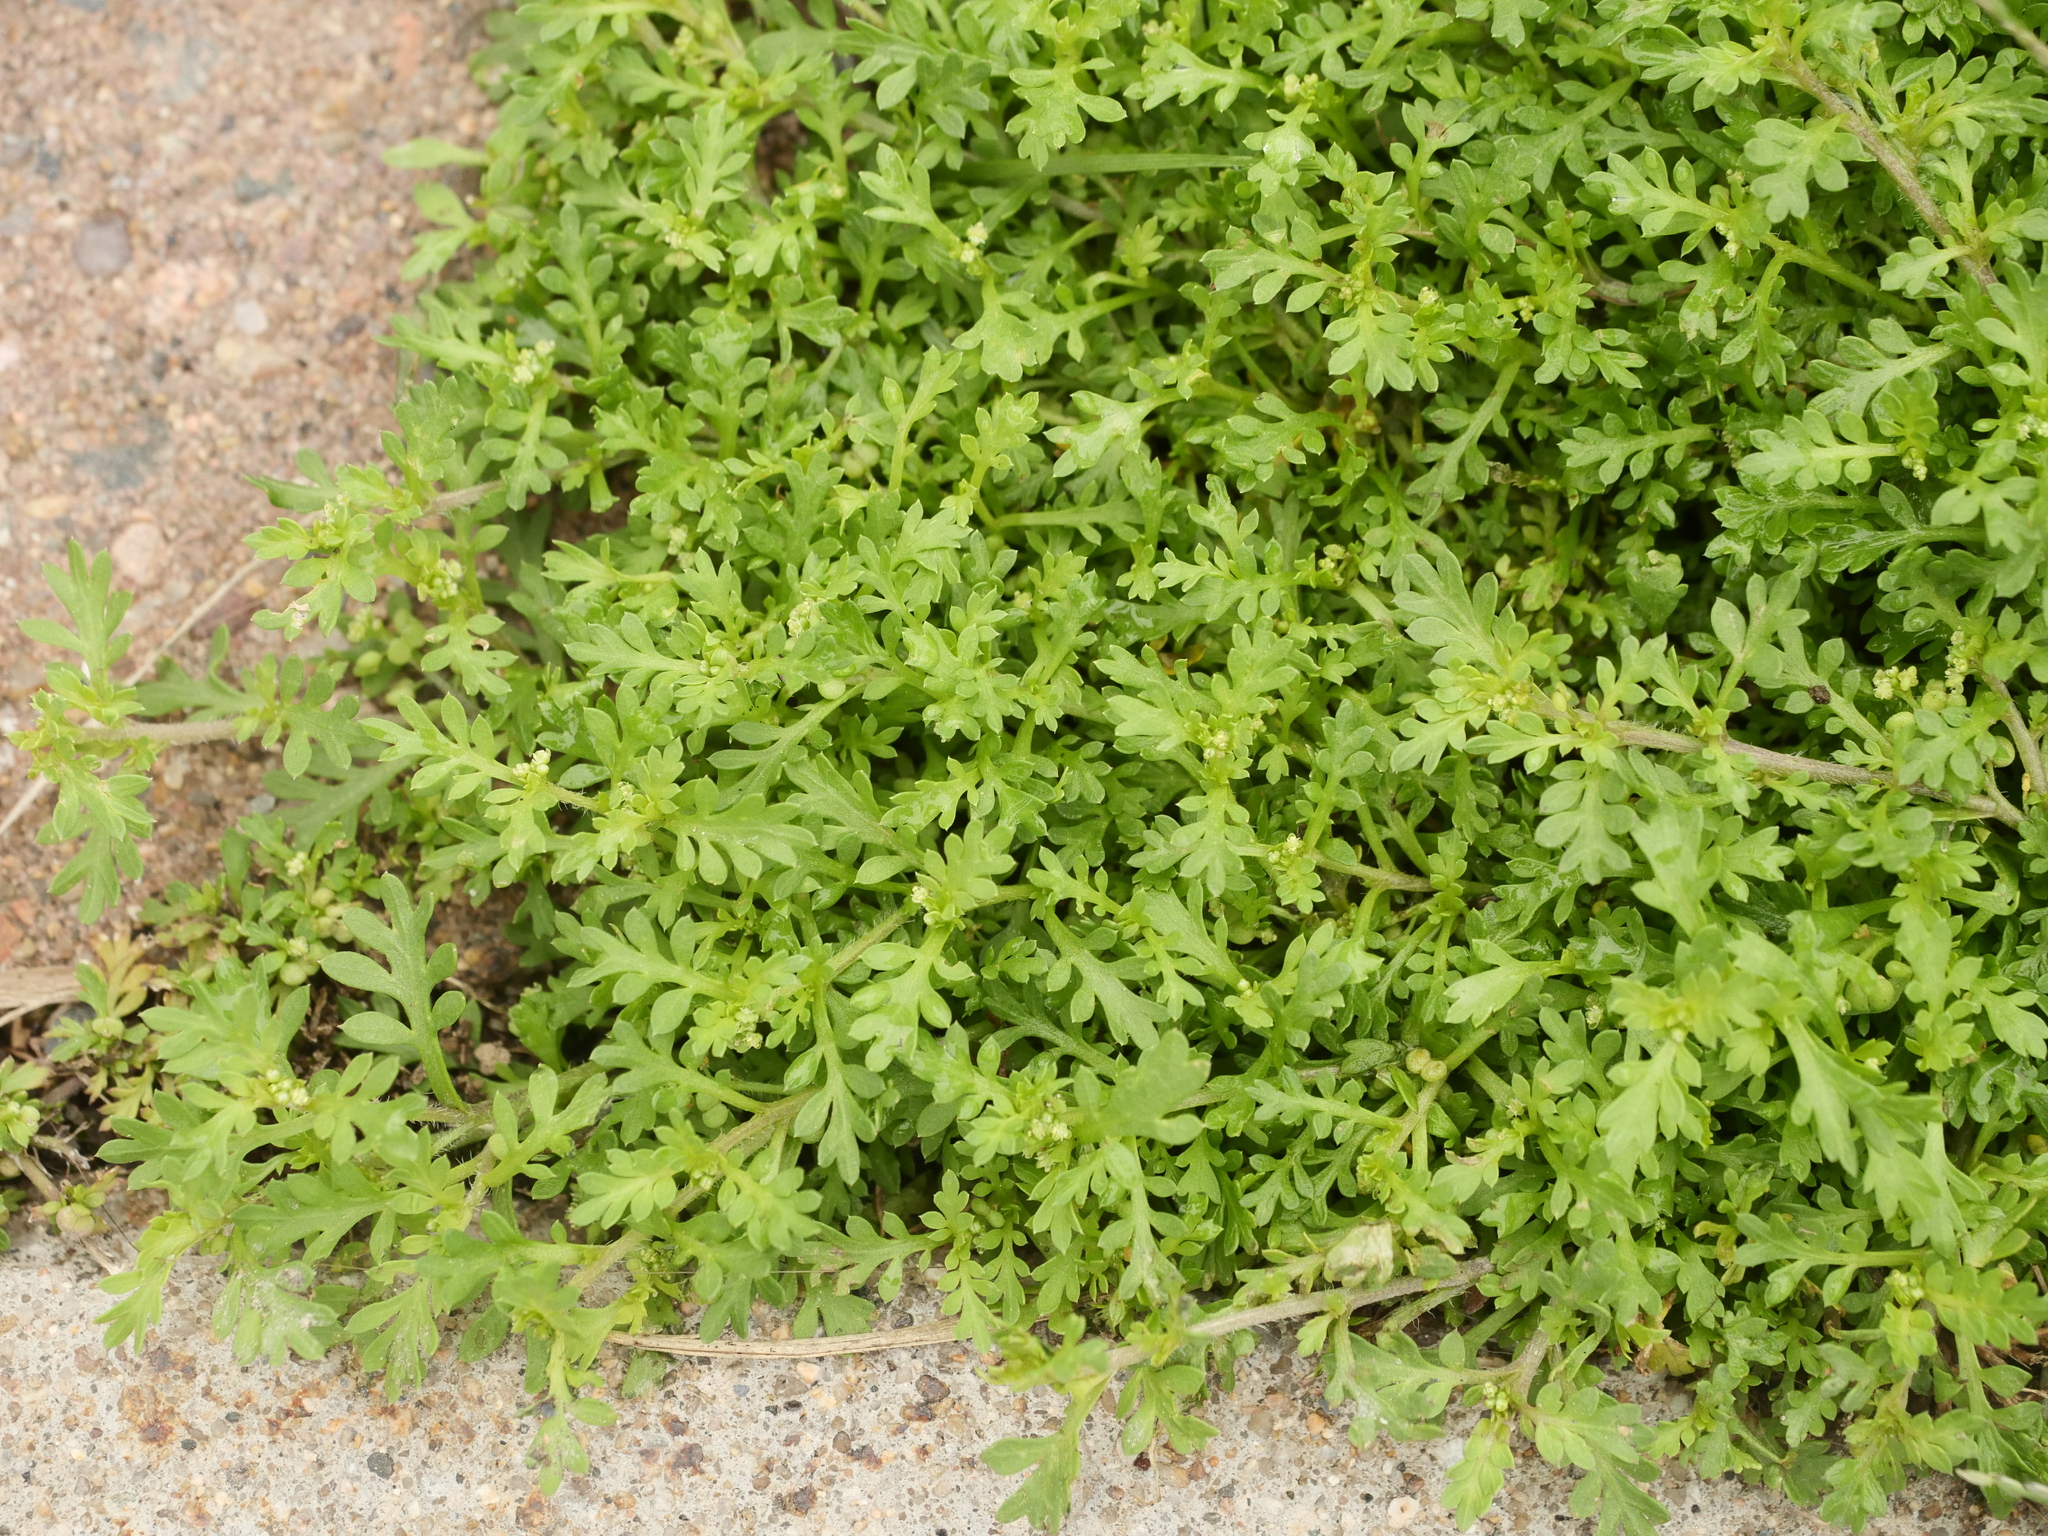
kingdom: Plantae
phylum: Tracheophyta
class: Magnoliopsida
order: Brassicales
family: Brassicaceae
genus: Lepidium
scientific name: Lepidium didymum
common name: Lesser swinecress
